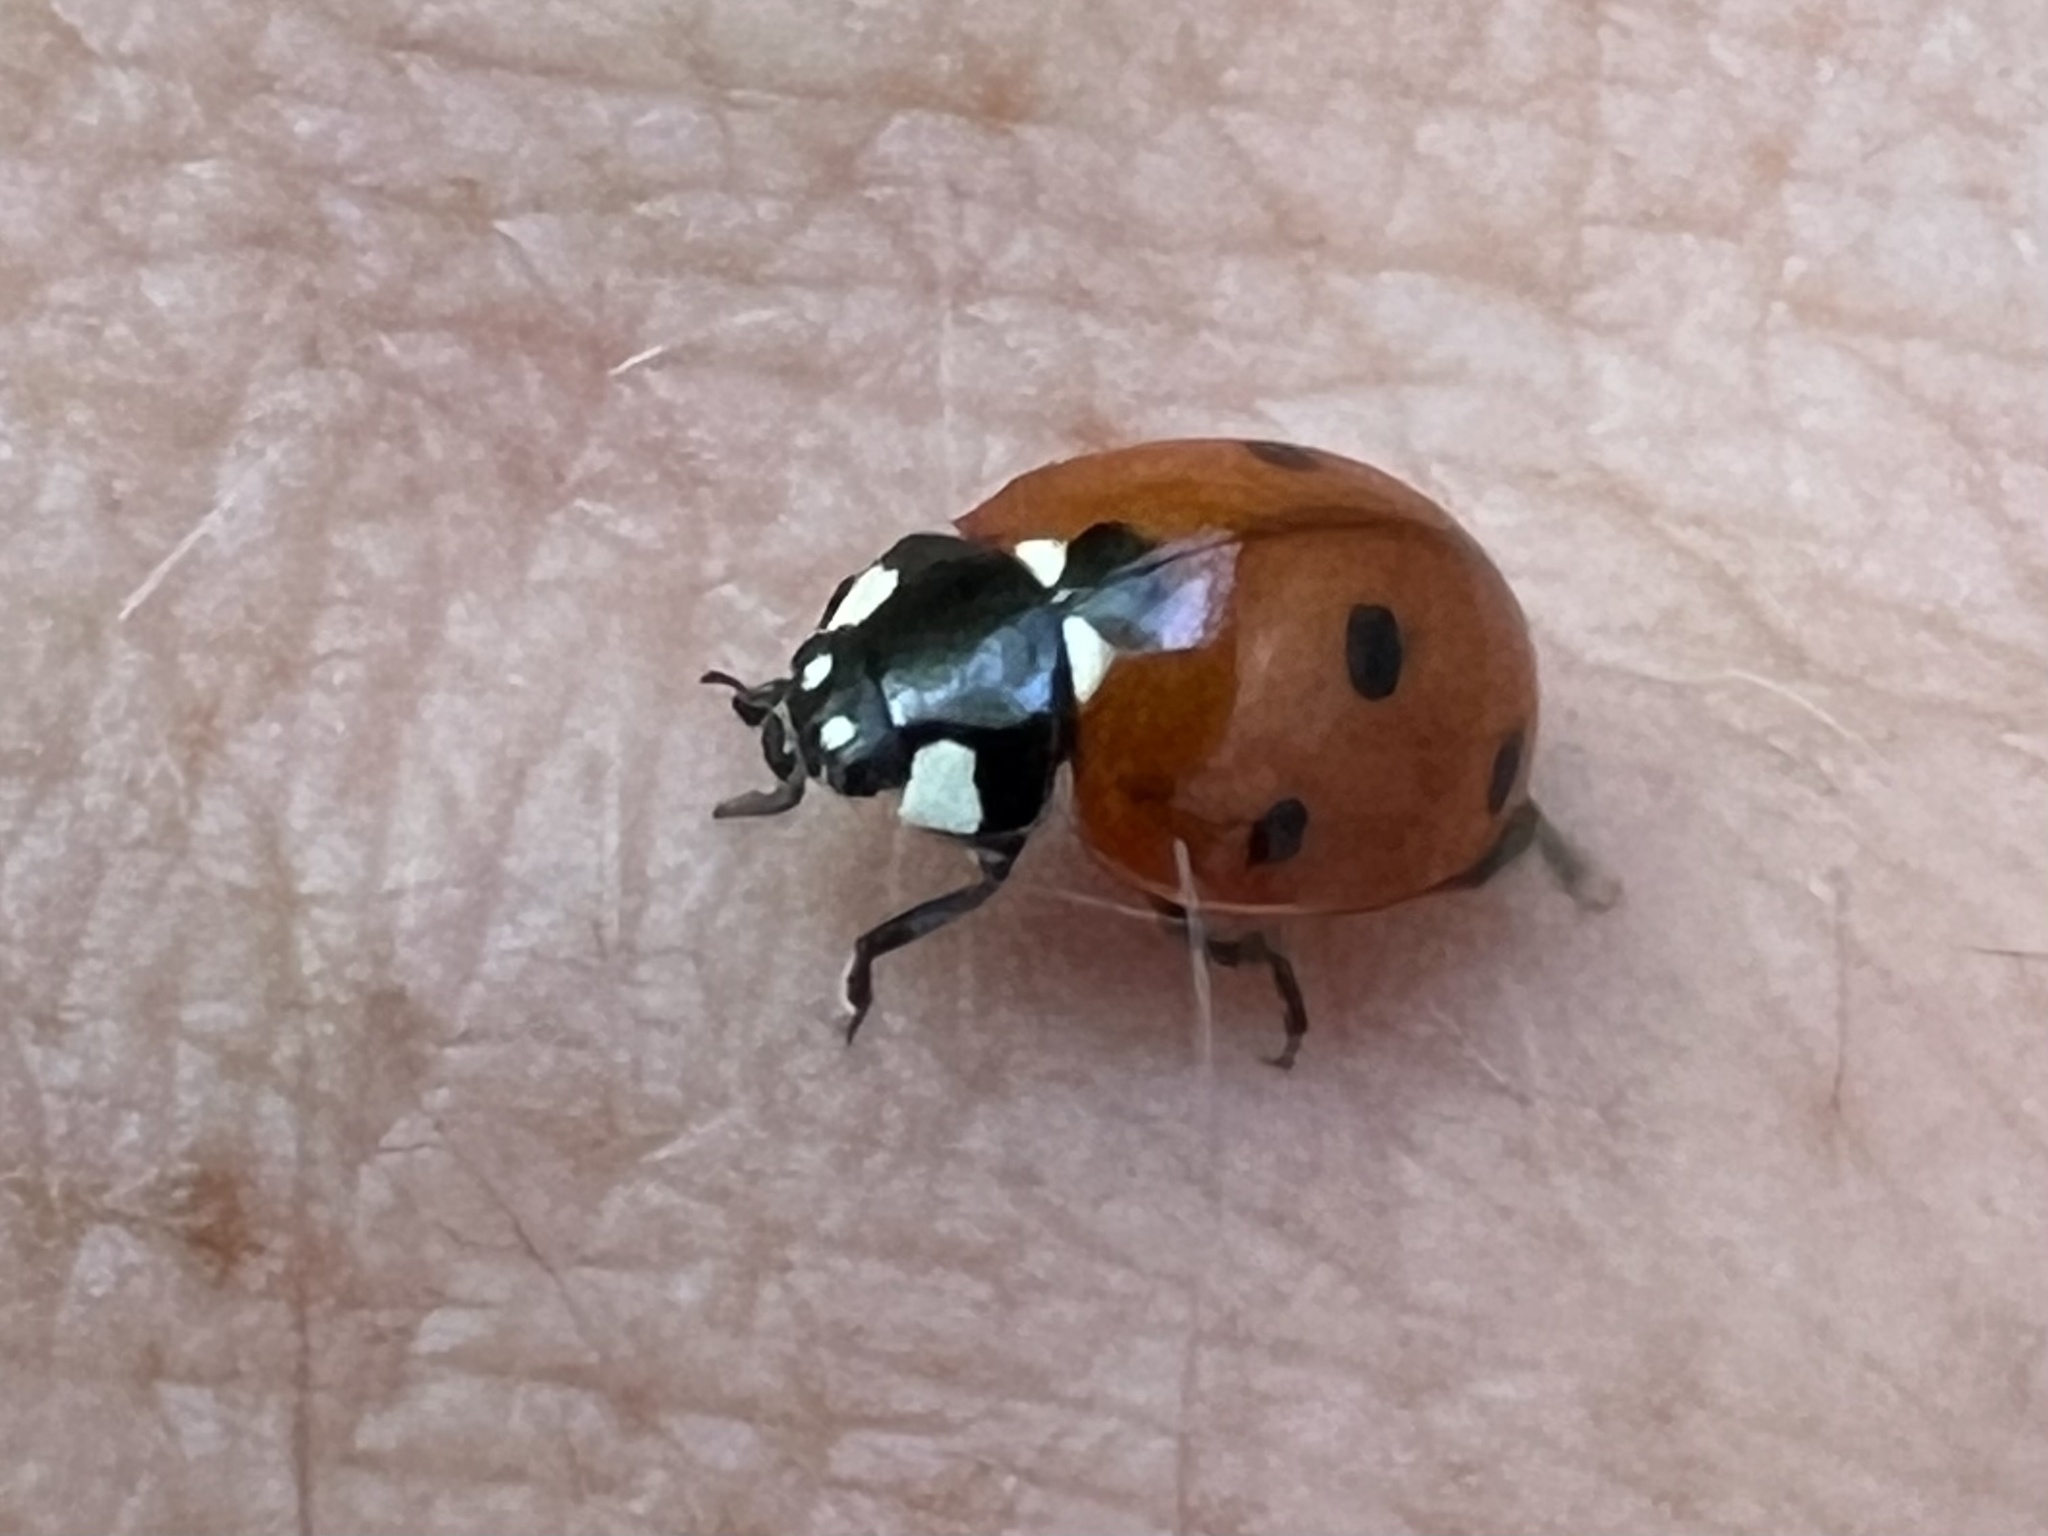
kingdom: Animalia
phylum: Arthropoda
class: Insecta
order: Coleoptera
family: Coccinellidae
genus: Coccinella
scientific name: Coccinella septempunctata
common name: Sevenspotted lady beetle
